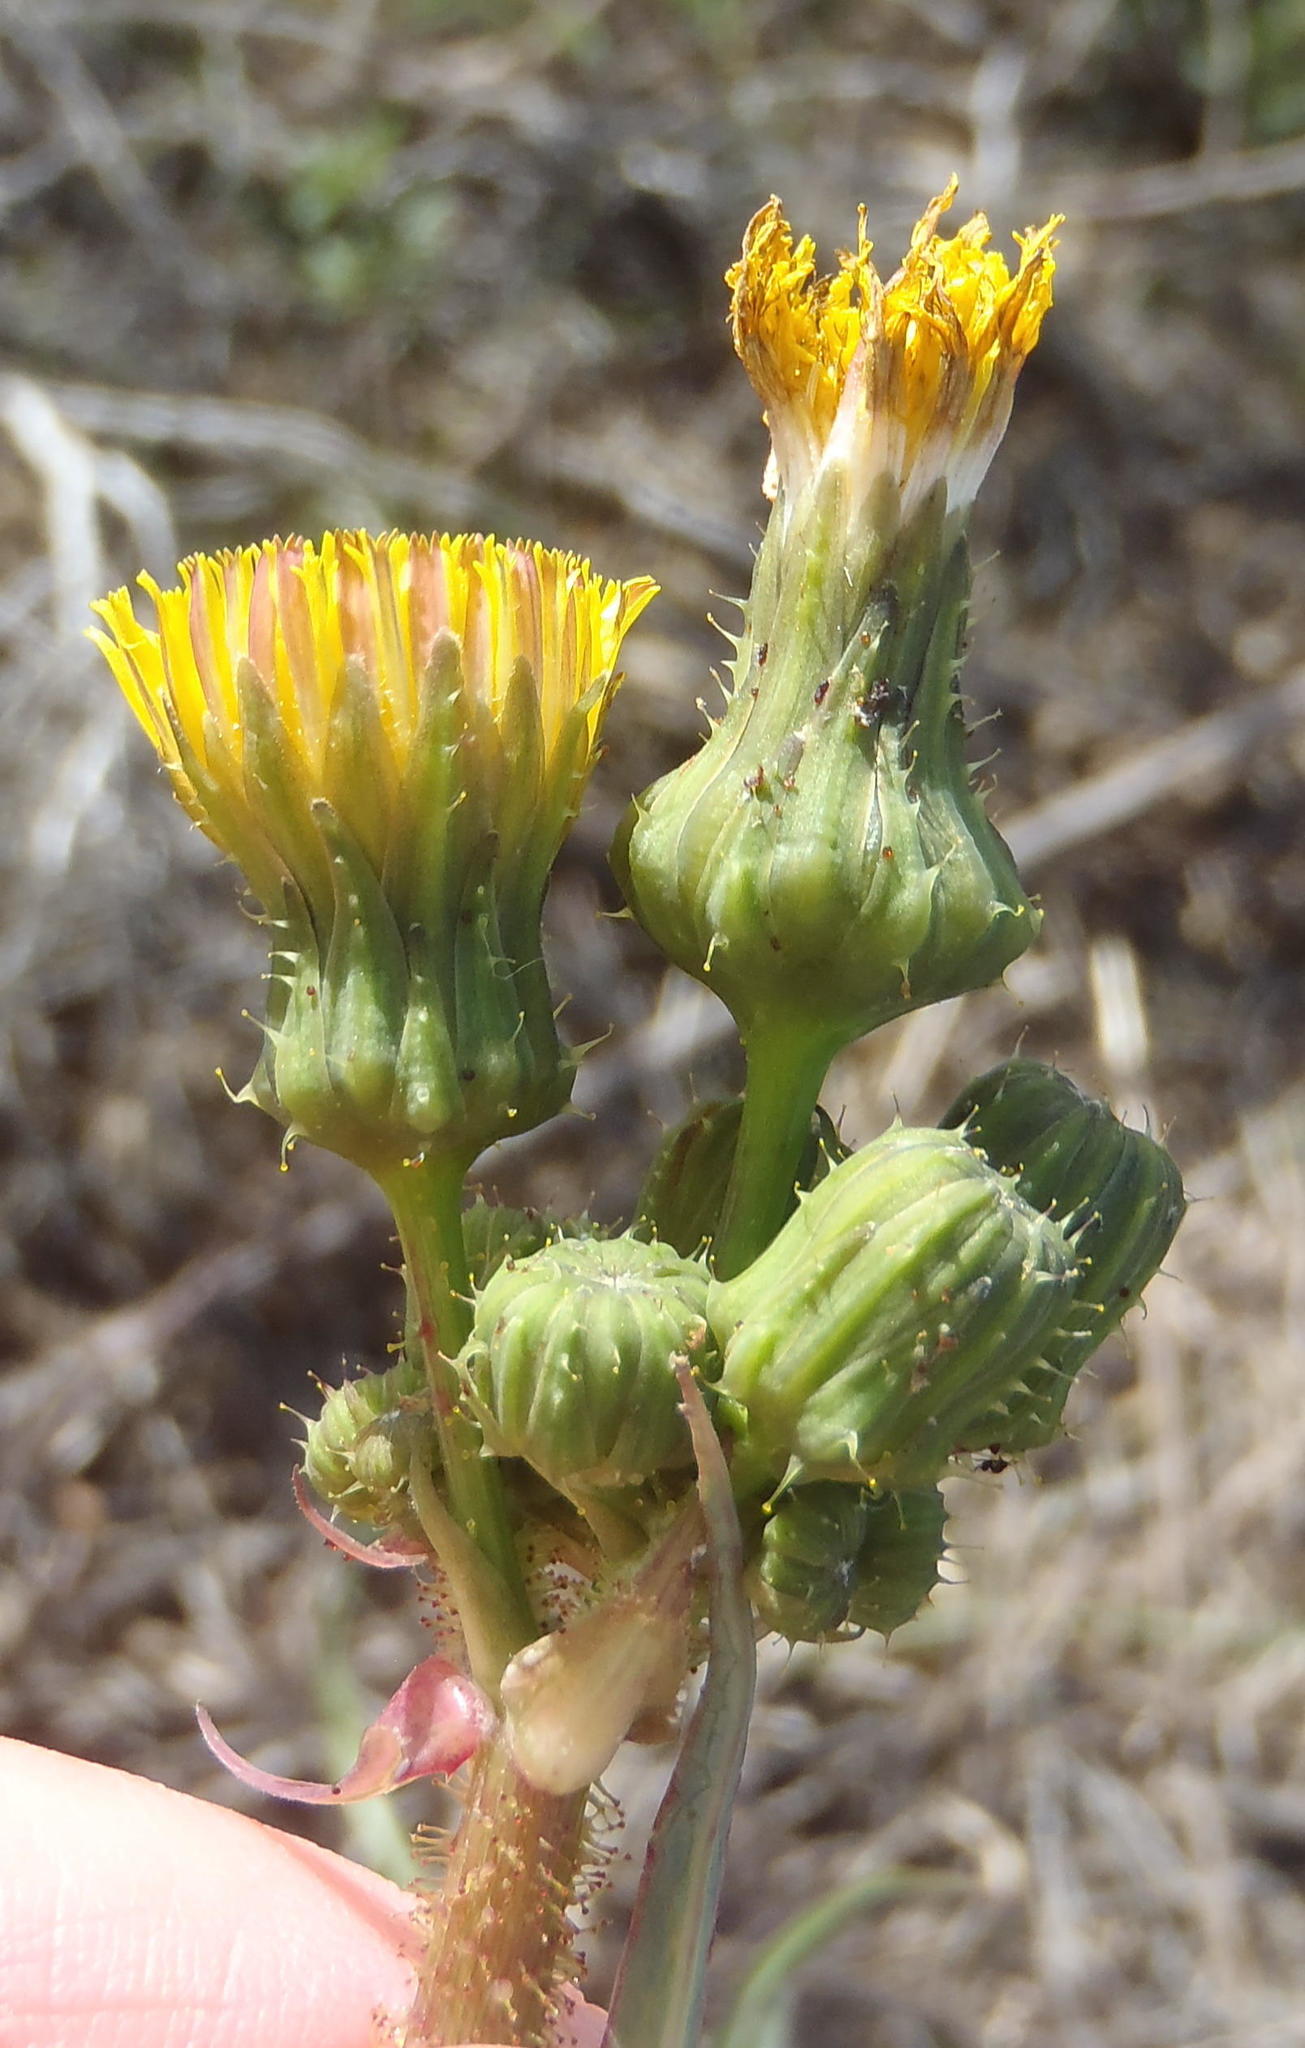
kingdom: Plantae
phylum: Tracheophyta
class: Magnoliopsida
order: Asterales
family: Asteraceae
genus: Sonchus
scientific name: Sonchus asper
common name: Prickly sow-thistle
